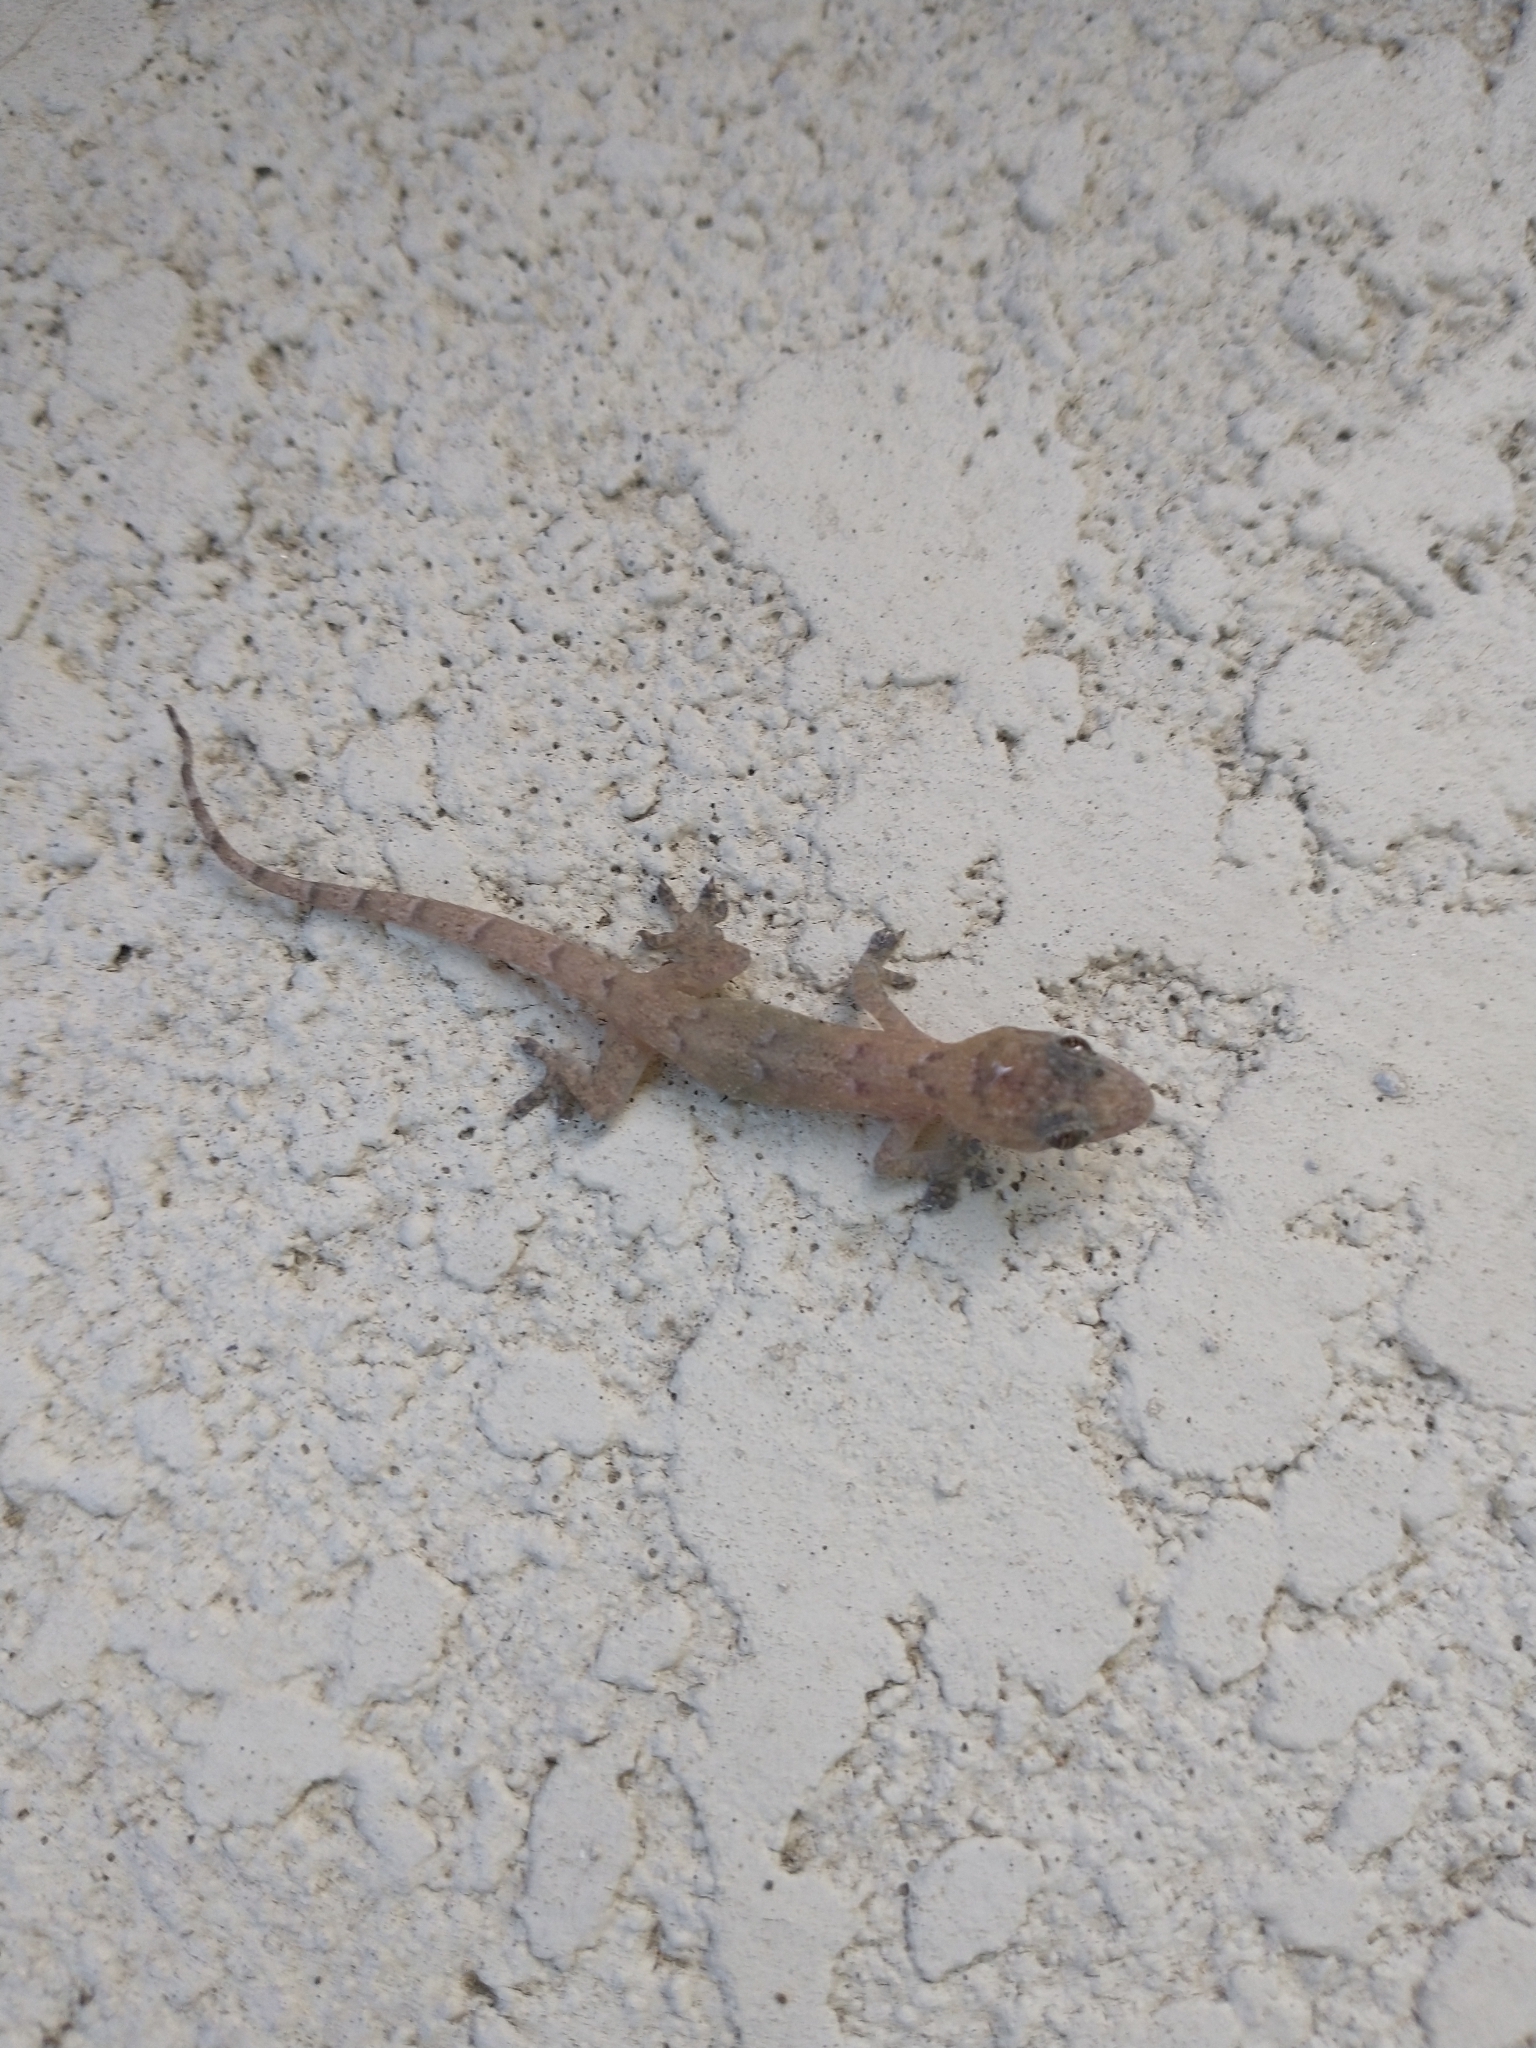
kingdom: Animalia
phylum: Chordata
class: Squamata
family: Gekkonidae
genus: Hemidactylus
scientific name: Hemidactylus mabouia
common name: House gecko
